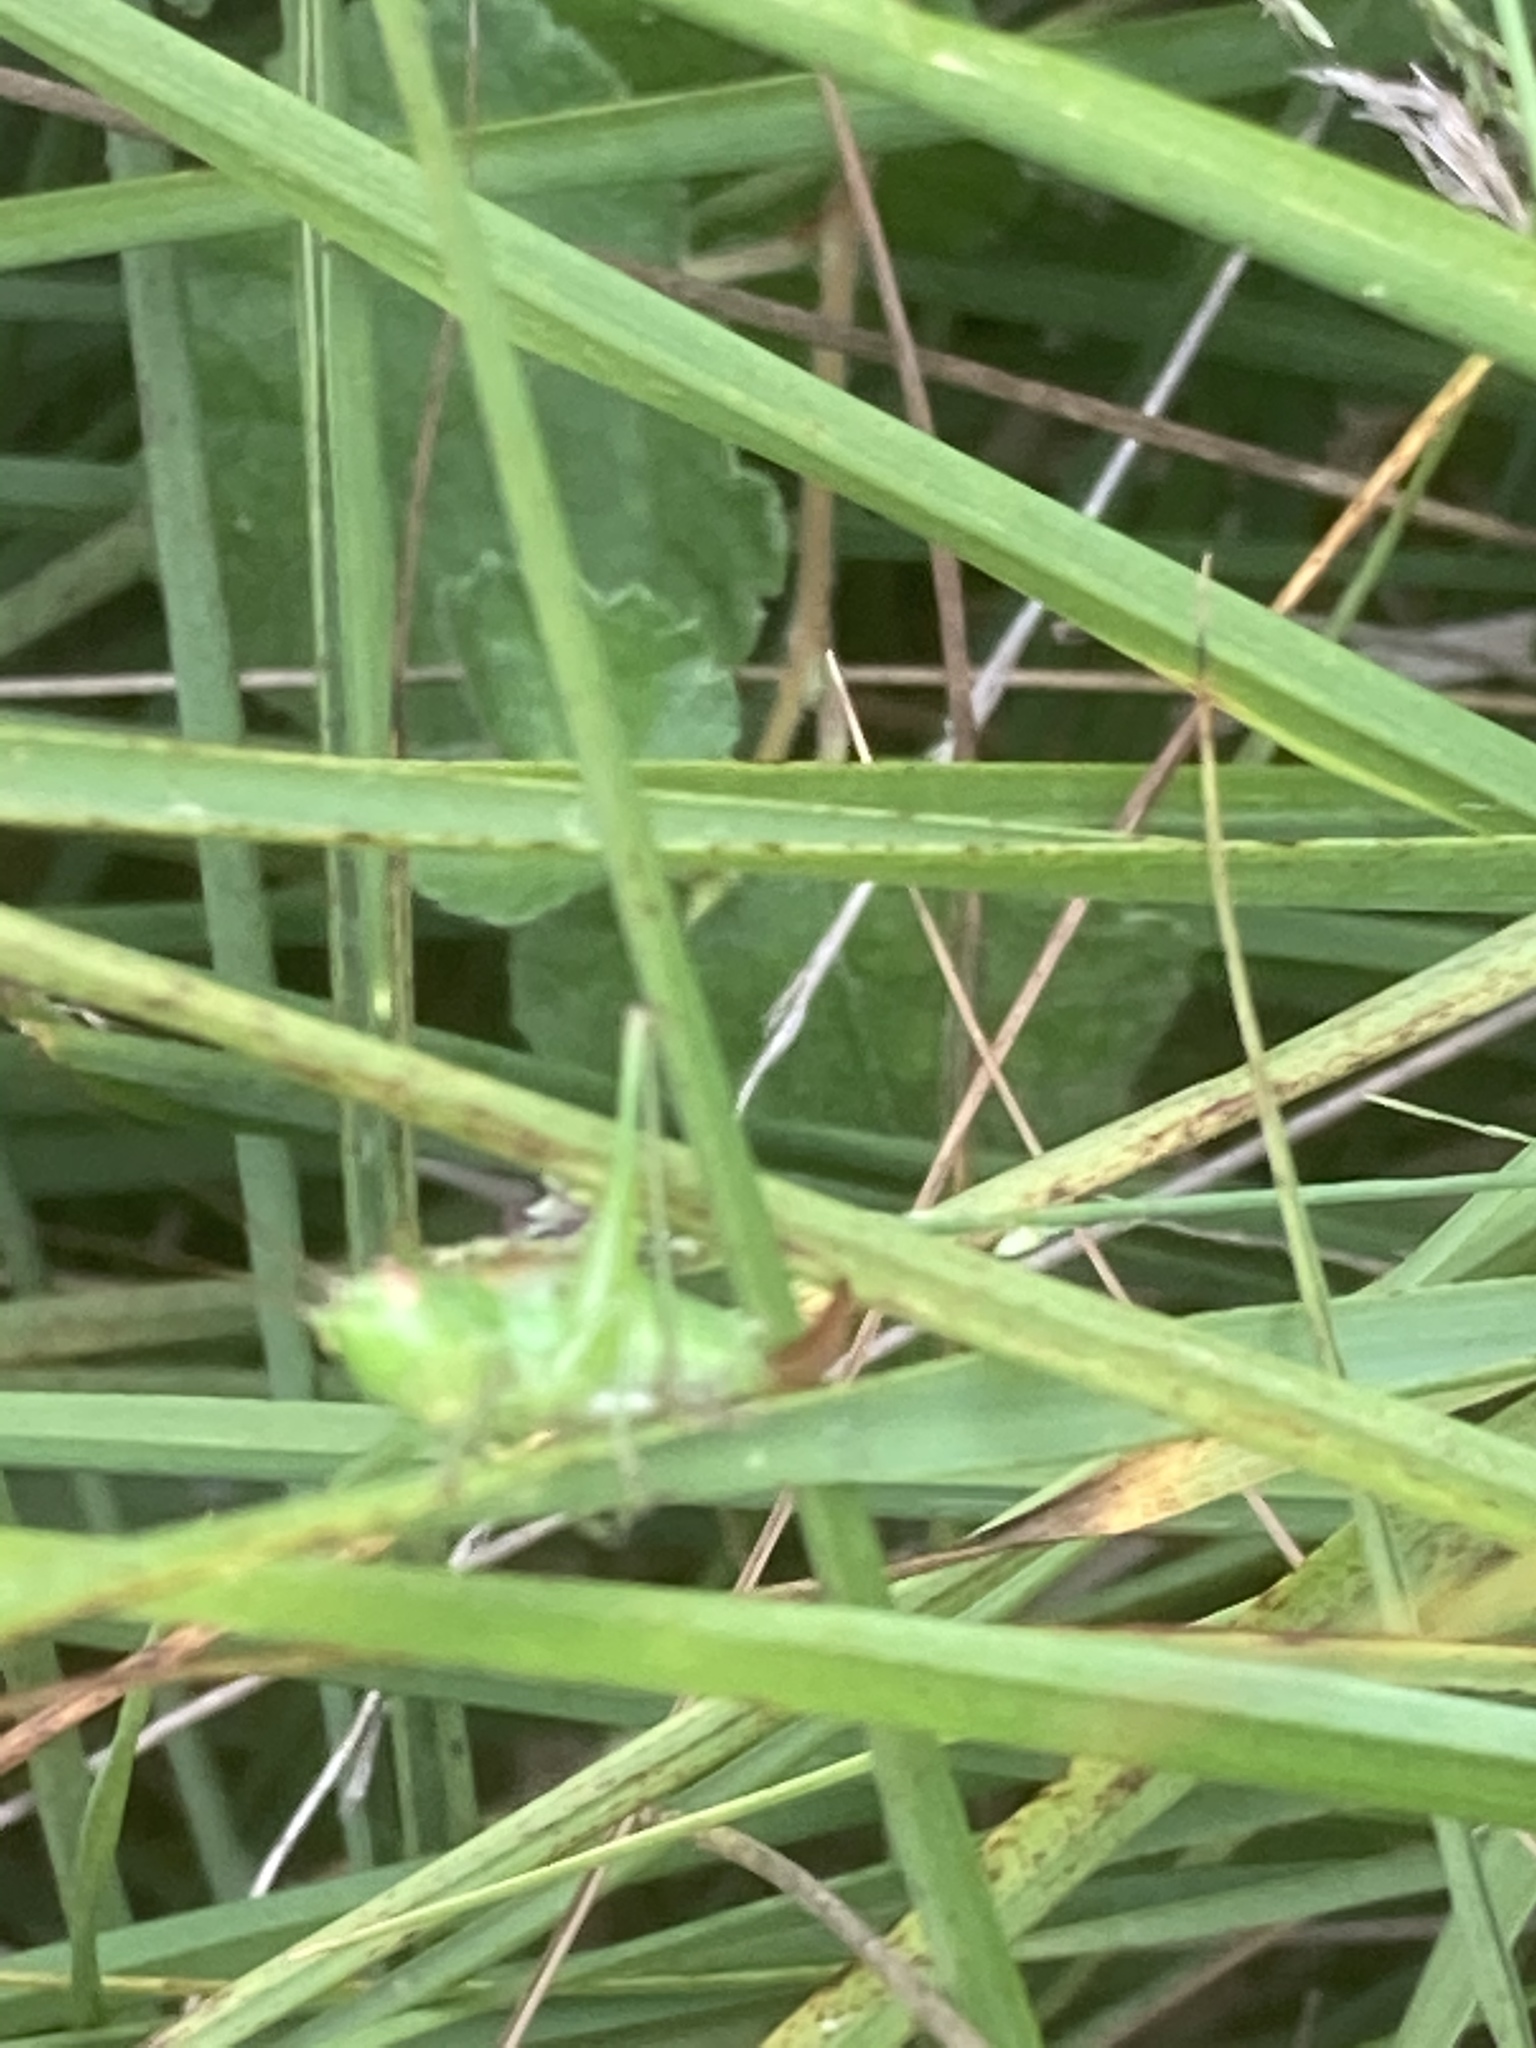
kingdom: Animalia
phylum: Arthropoda
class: Insecta
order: Orthoptera
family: Tettigoniidae
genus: Conocephalus
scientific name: Conocephalus dorsalis
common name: Short-winged conehead
